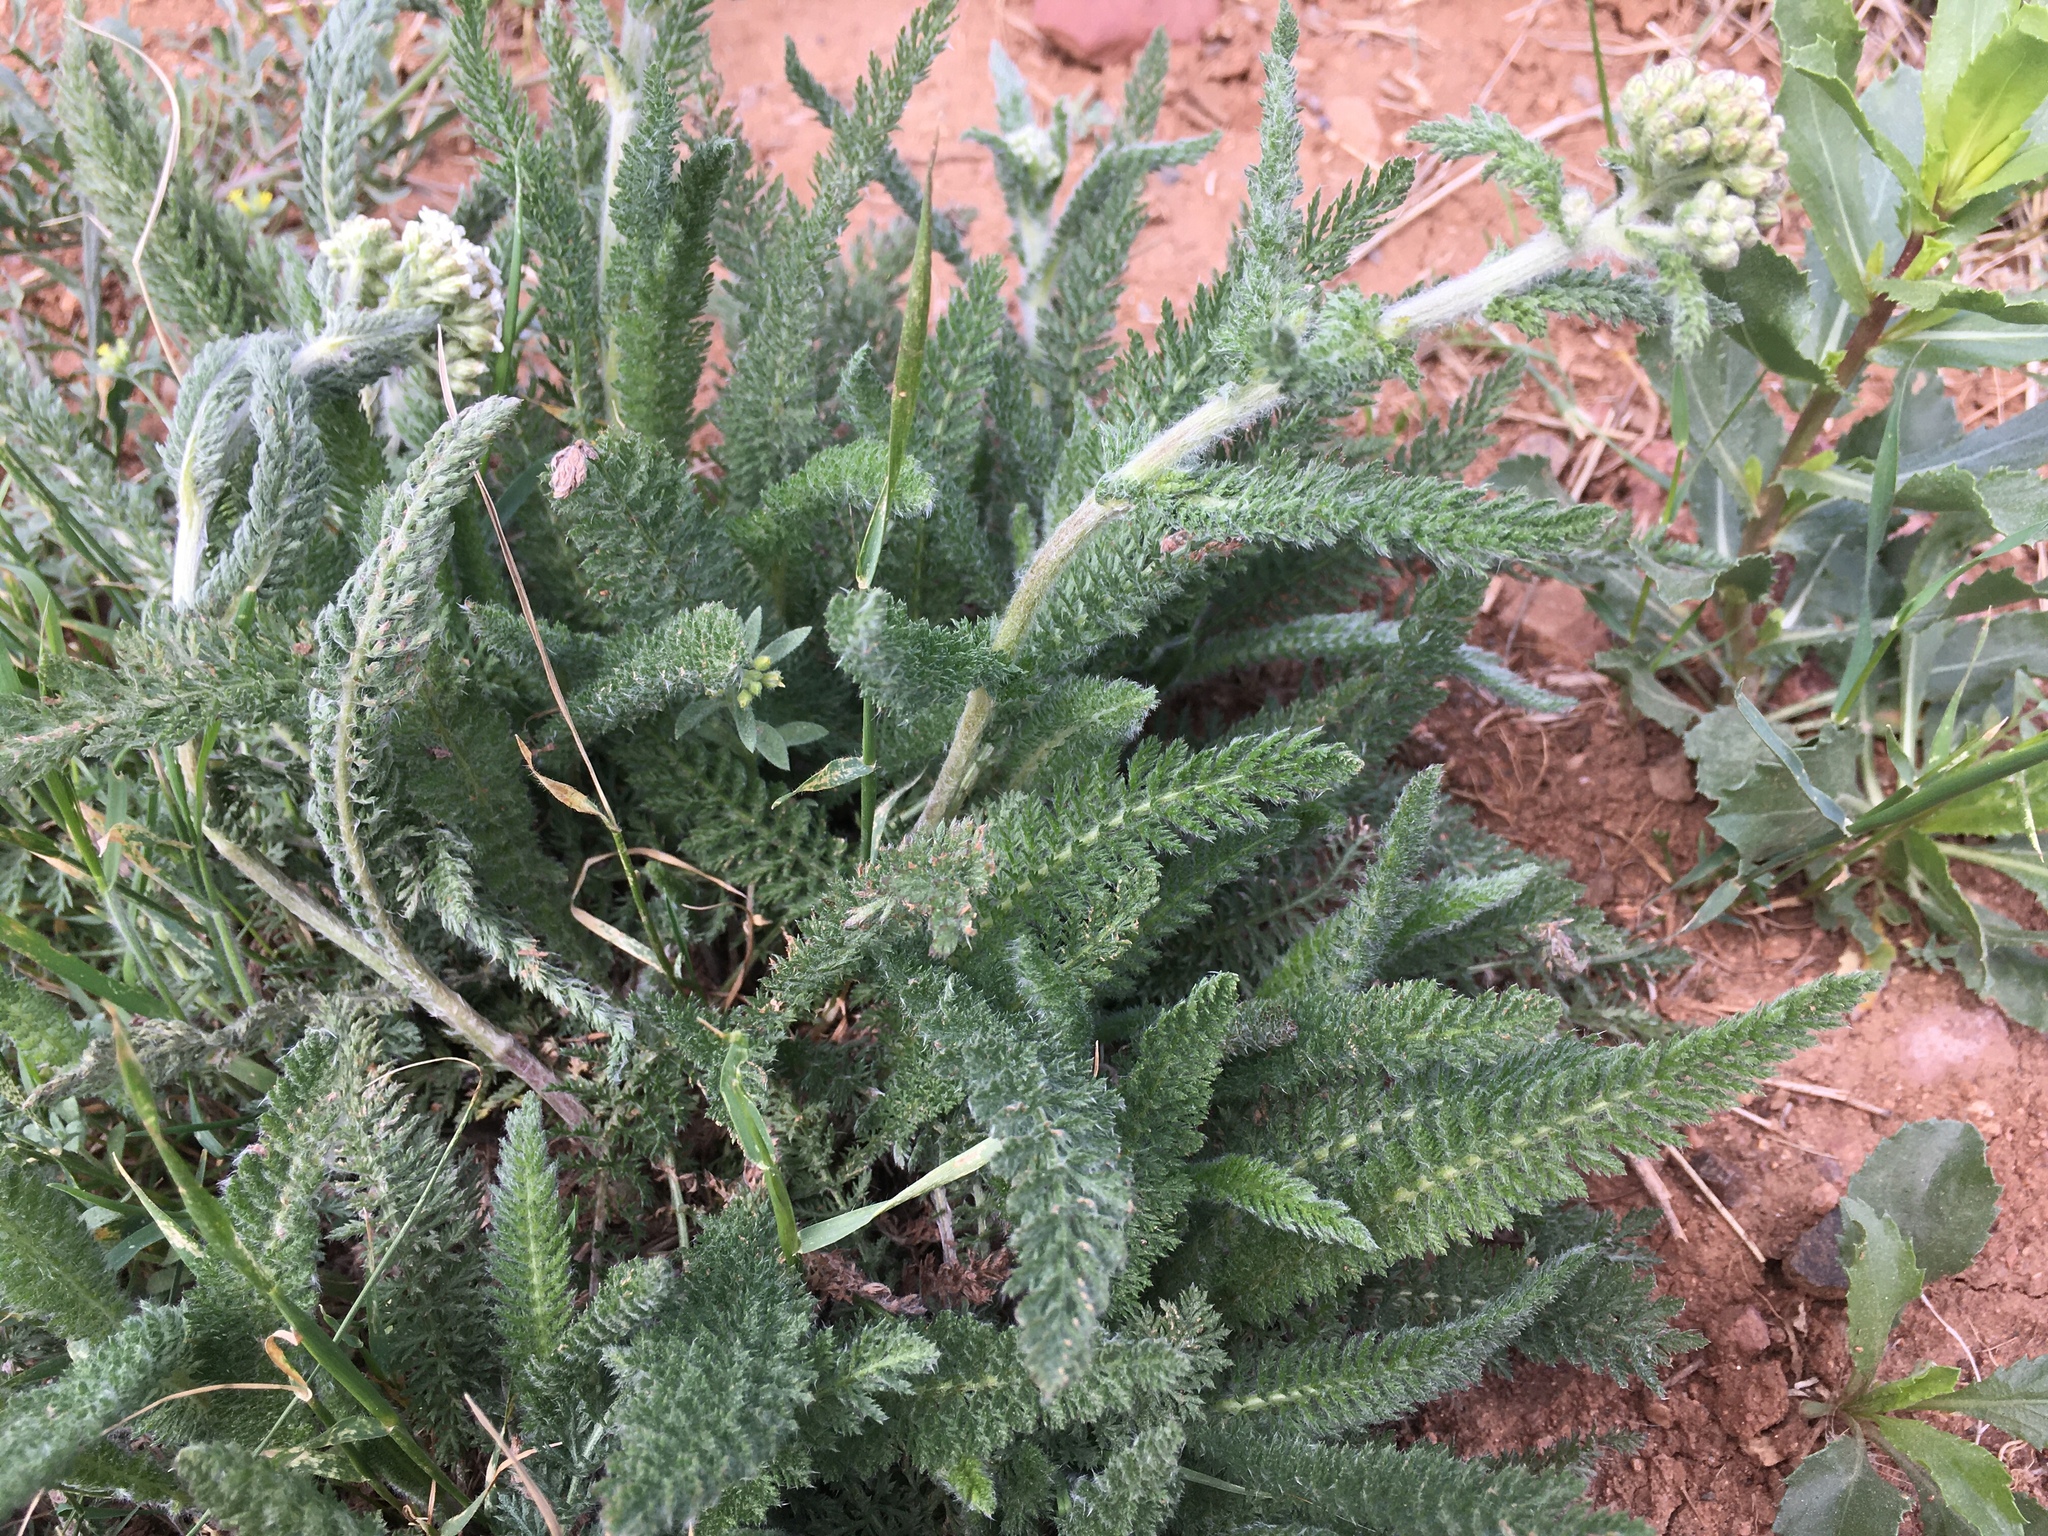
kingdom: Plantae
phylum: Tracheophyta
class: Magnoliopsida
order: Asterales
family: Asteraceae
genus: Achillea
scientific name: Achillea millefolium
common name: Yarrow
